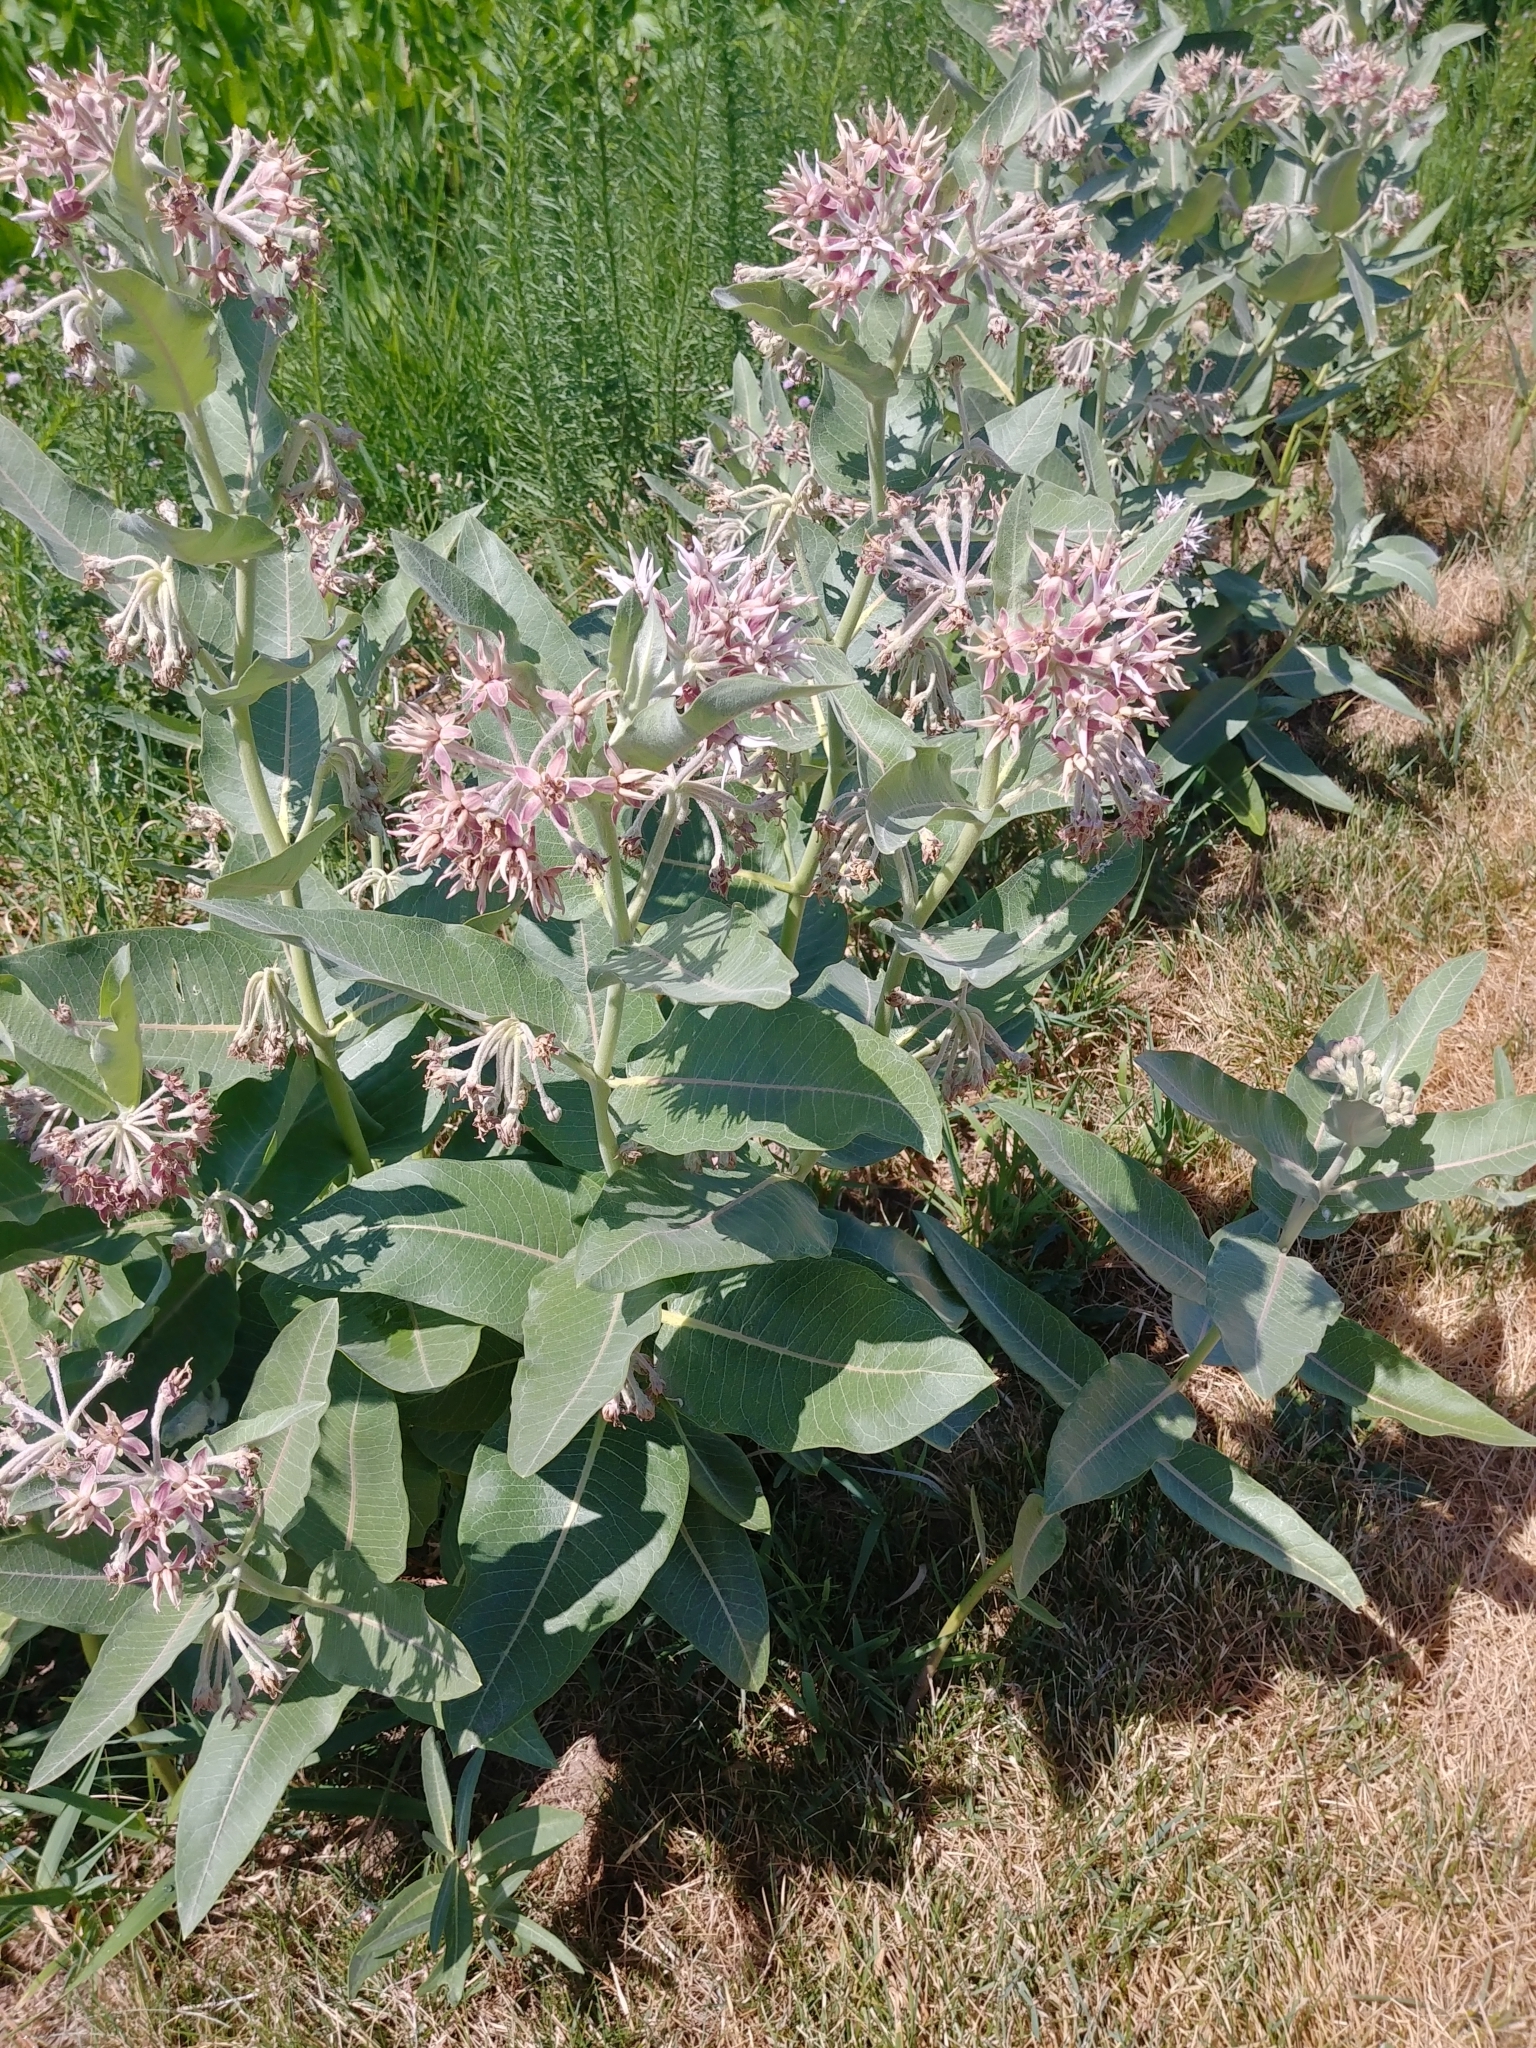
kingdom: Plantae
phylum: Tracheophyta
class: Magnoliopsida
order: Gentianales
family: Apocynaceae
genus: Asclepias
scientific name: Asclepias speciosa
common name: Showy milkweed
